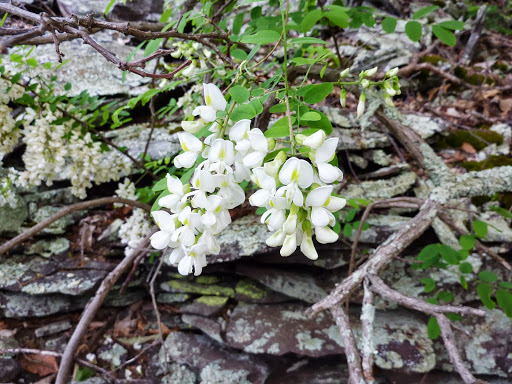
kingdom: Plantae
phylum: Tracheophyta
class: Magnoliopsida
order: Fabales
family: Fabaceae
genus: Robinia
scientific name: Robinia pseudoacacia
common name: Black locust
